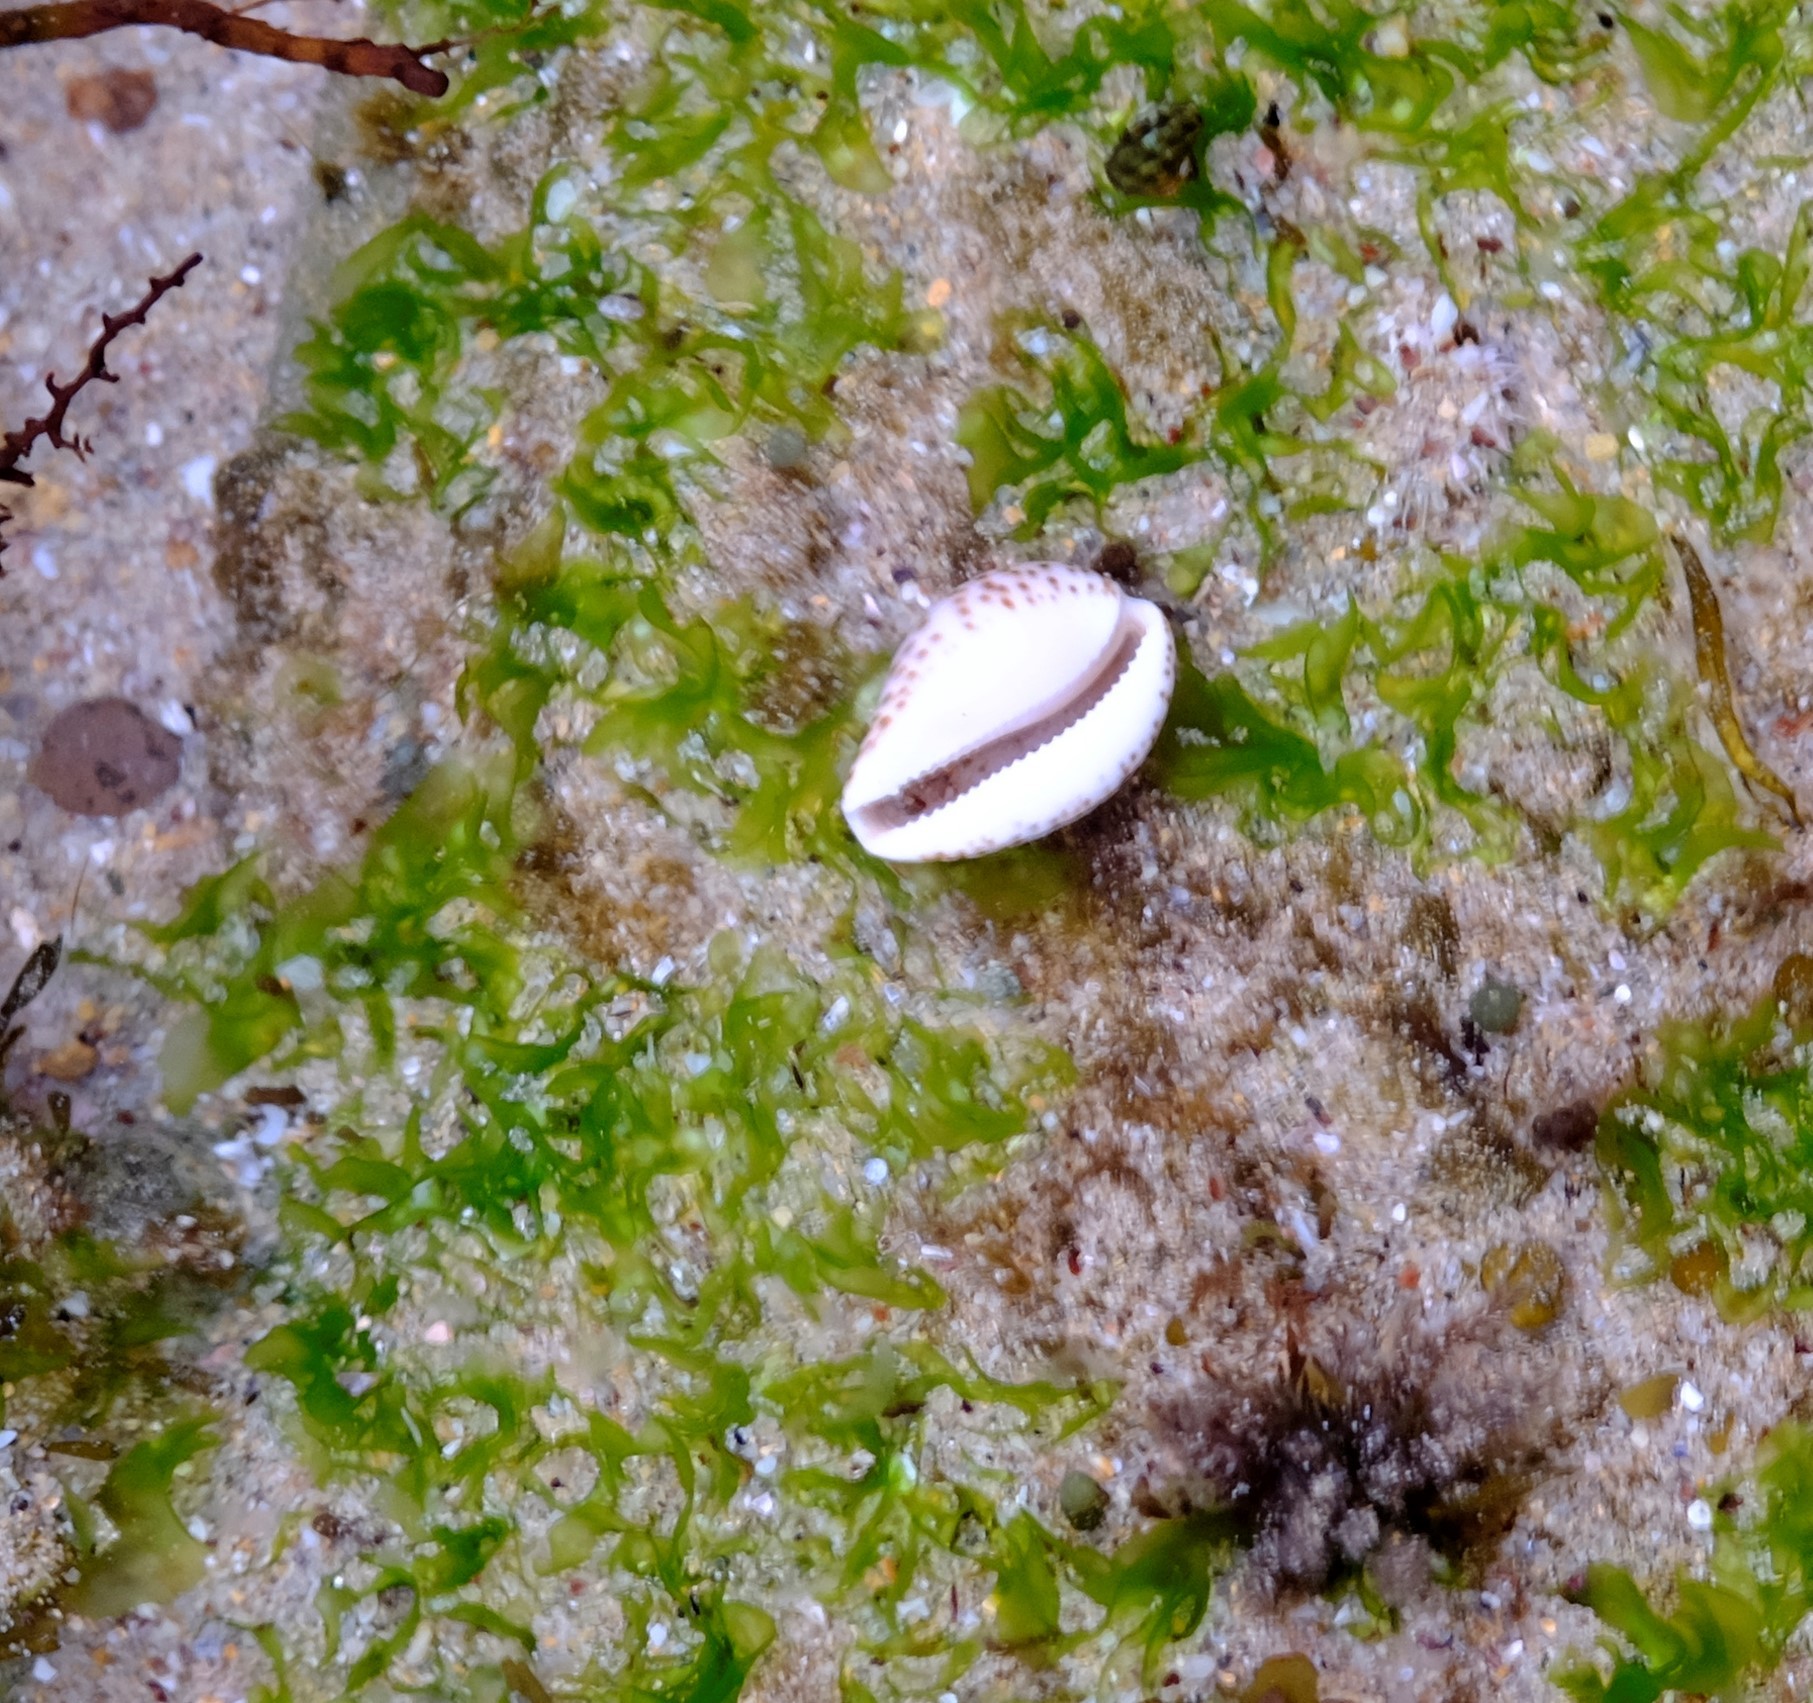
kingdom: Animalia
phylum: Mollusca
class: Gastropoda
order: Littorinimorpha
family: Cypraeidae
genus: Notocypraea
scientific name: Notocypraea angustata
